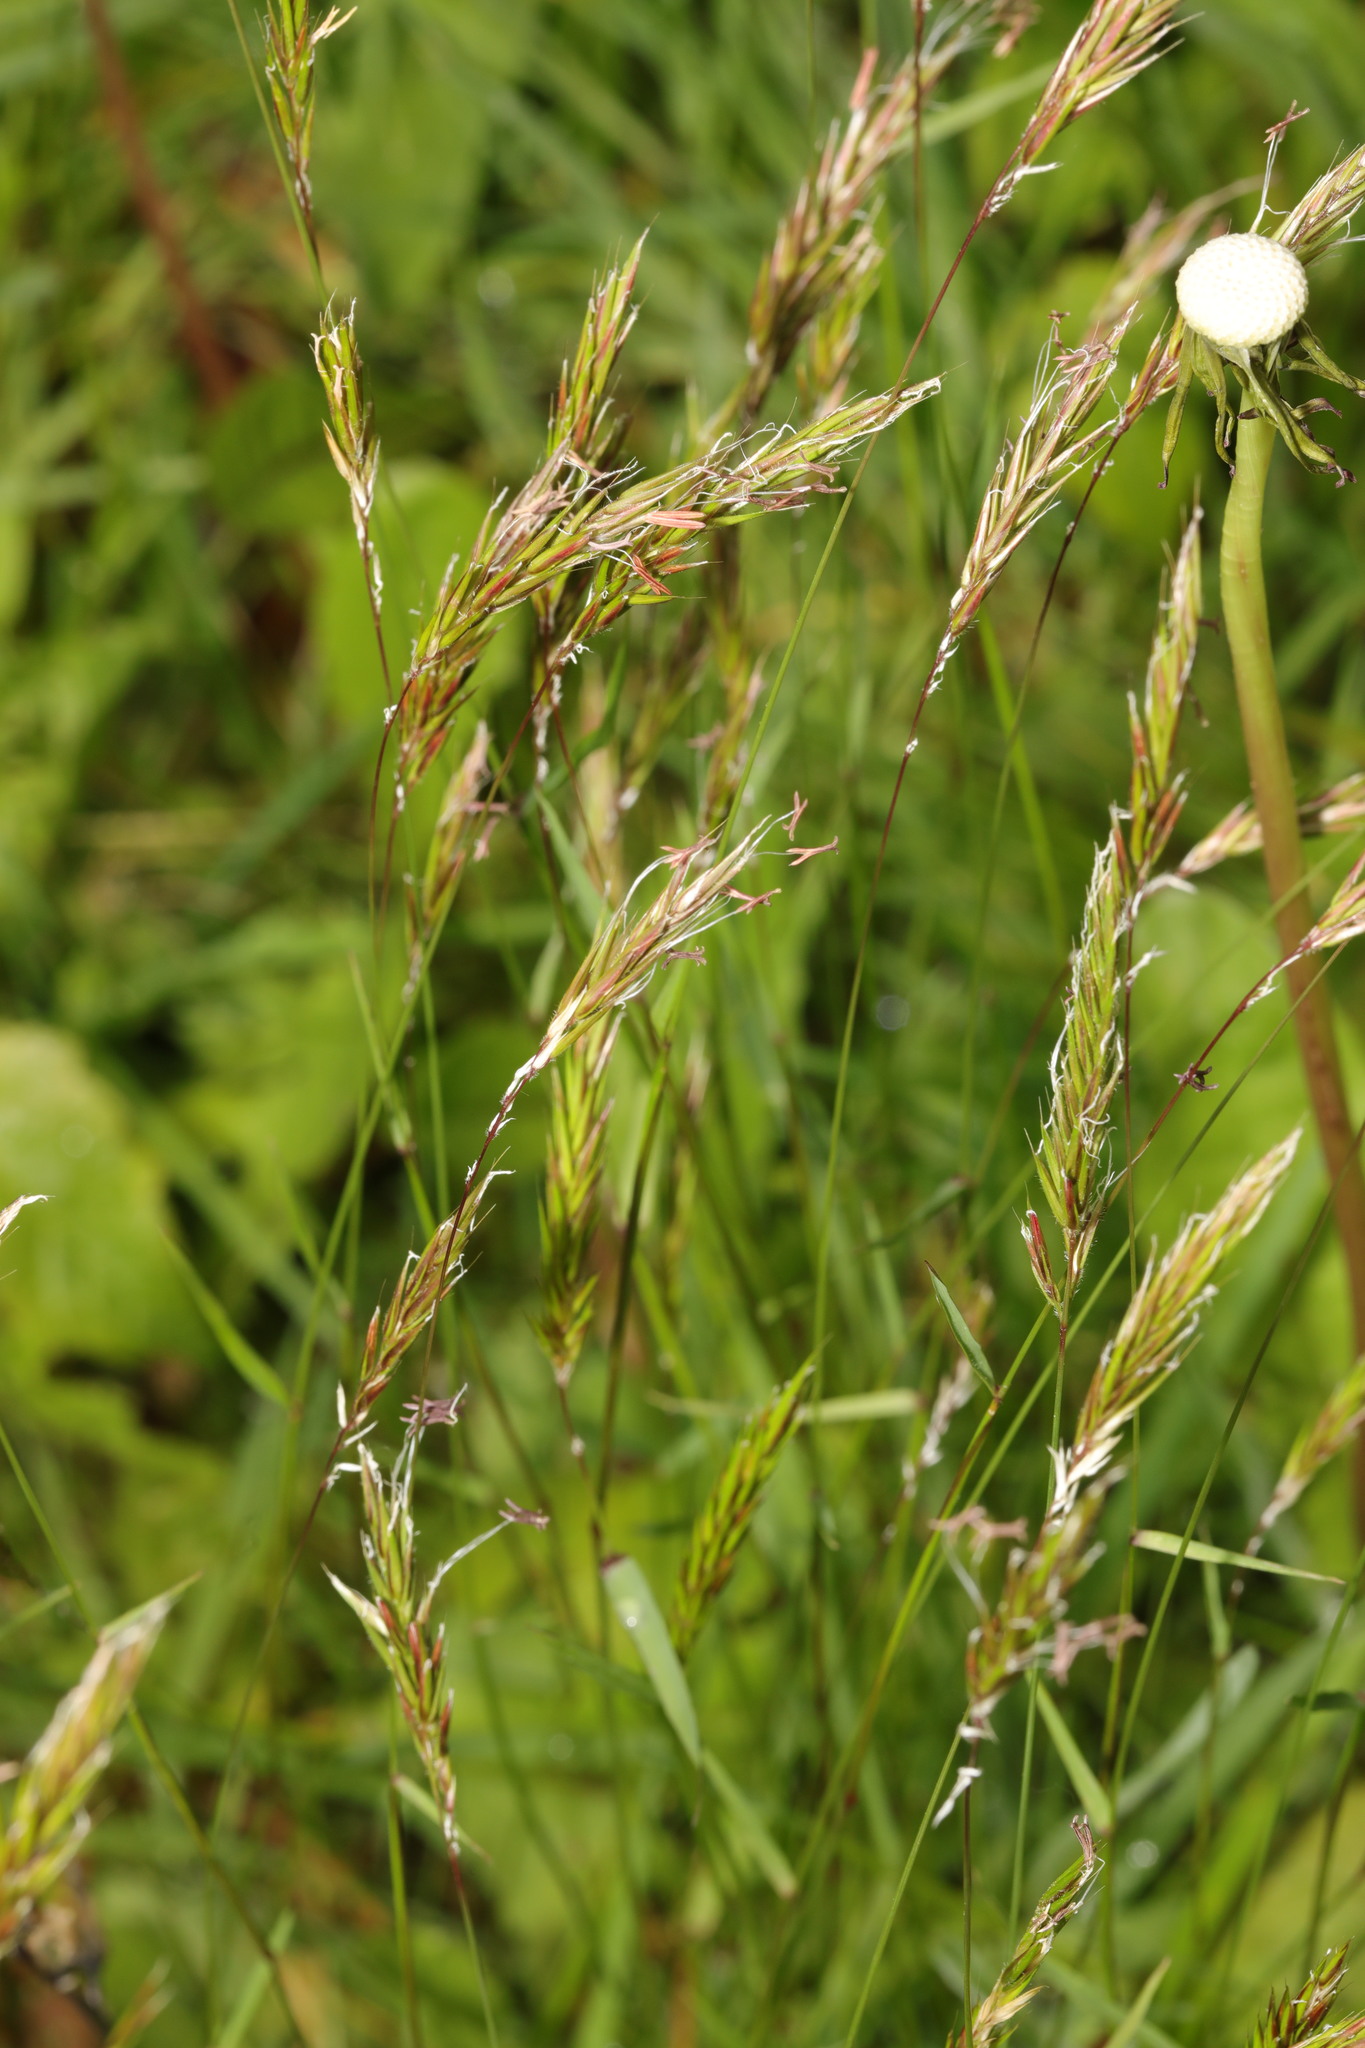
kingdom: Plantae
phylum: Tracheophyta
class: Liliopsida
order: Poales
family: Poaceae
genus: Anthoxanthum
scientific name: Anthoxanthum odoratum
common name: Sweet vernalgrass
